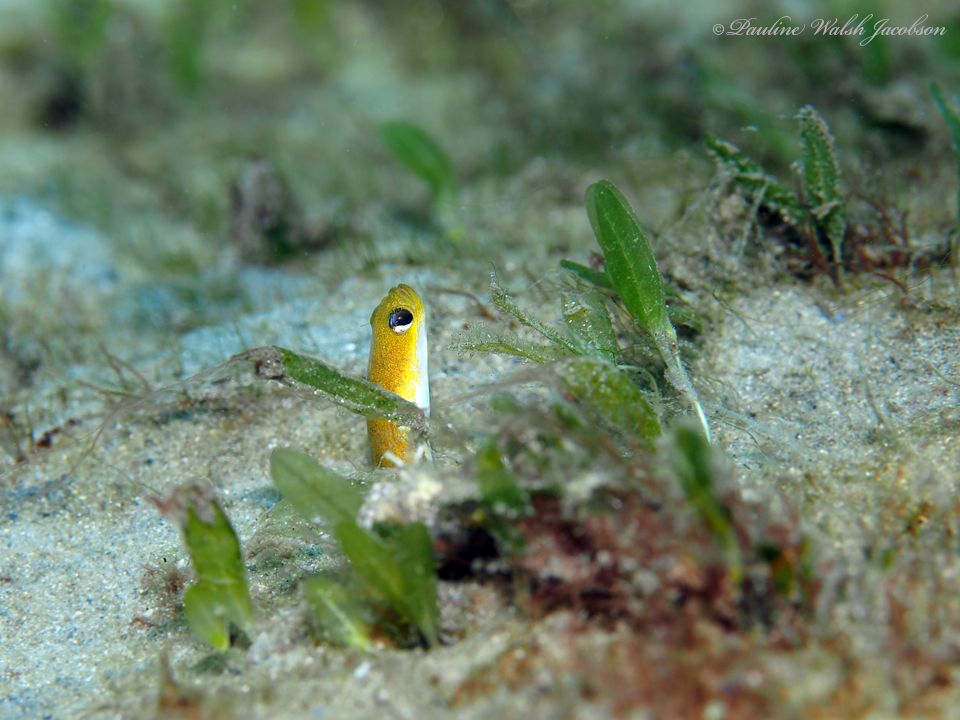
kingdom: Animalia
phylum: Chordata
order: Anguilliformes
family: Congridae
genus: Heteroconger
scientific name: Heteroconger luteolus
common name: Yellow garden eel
